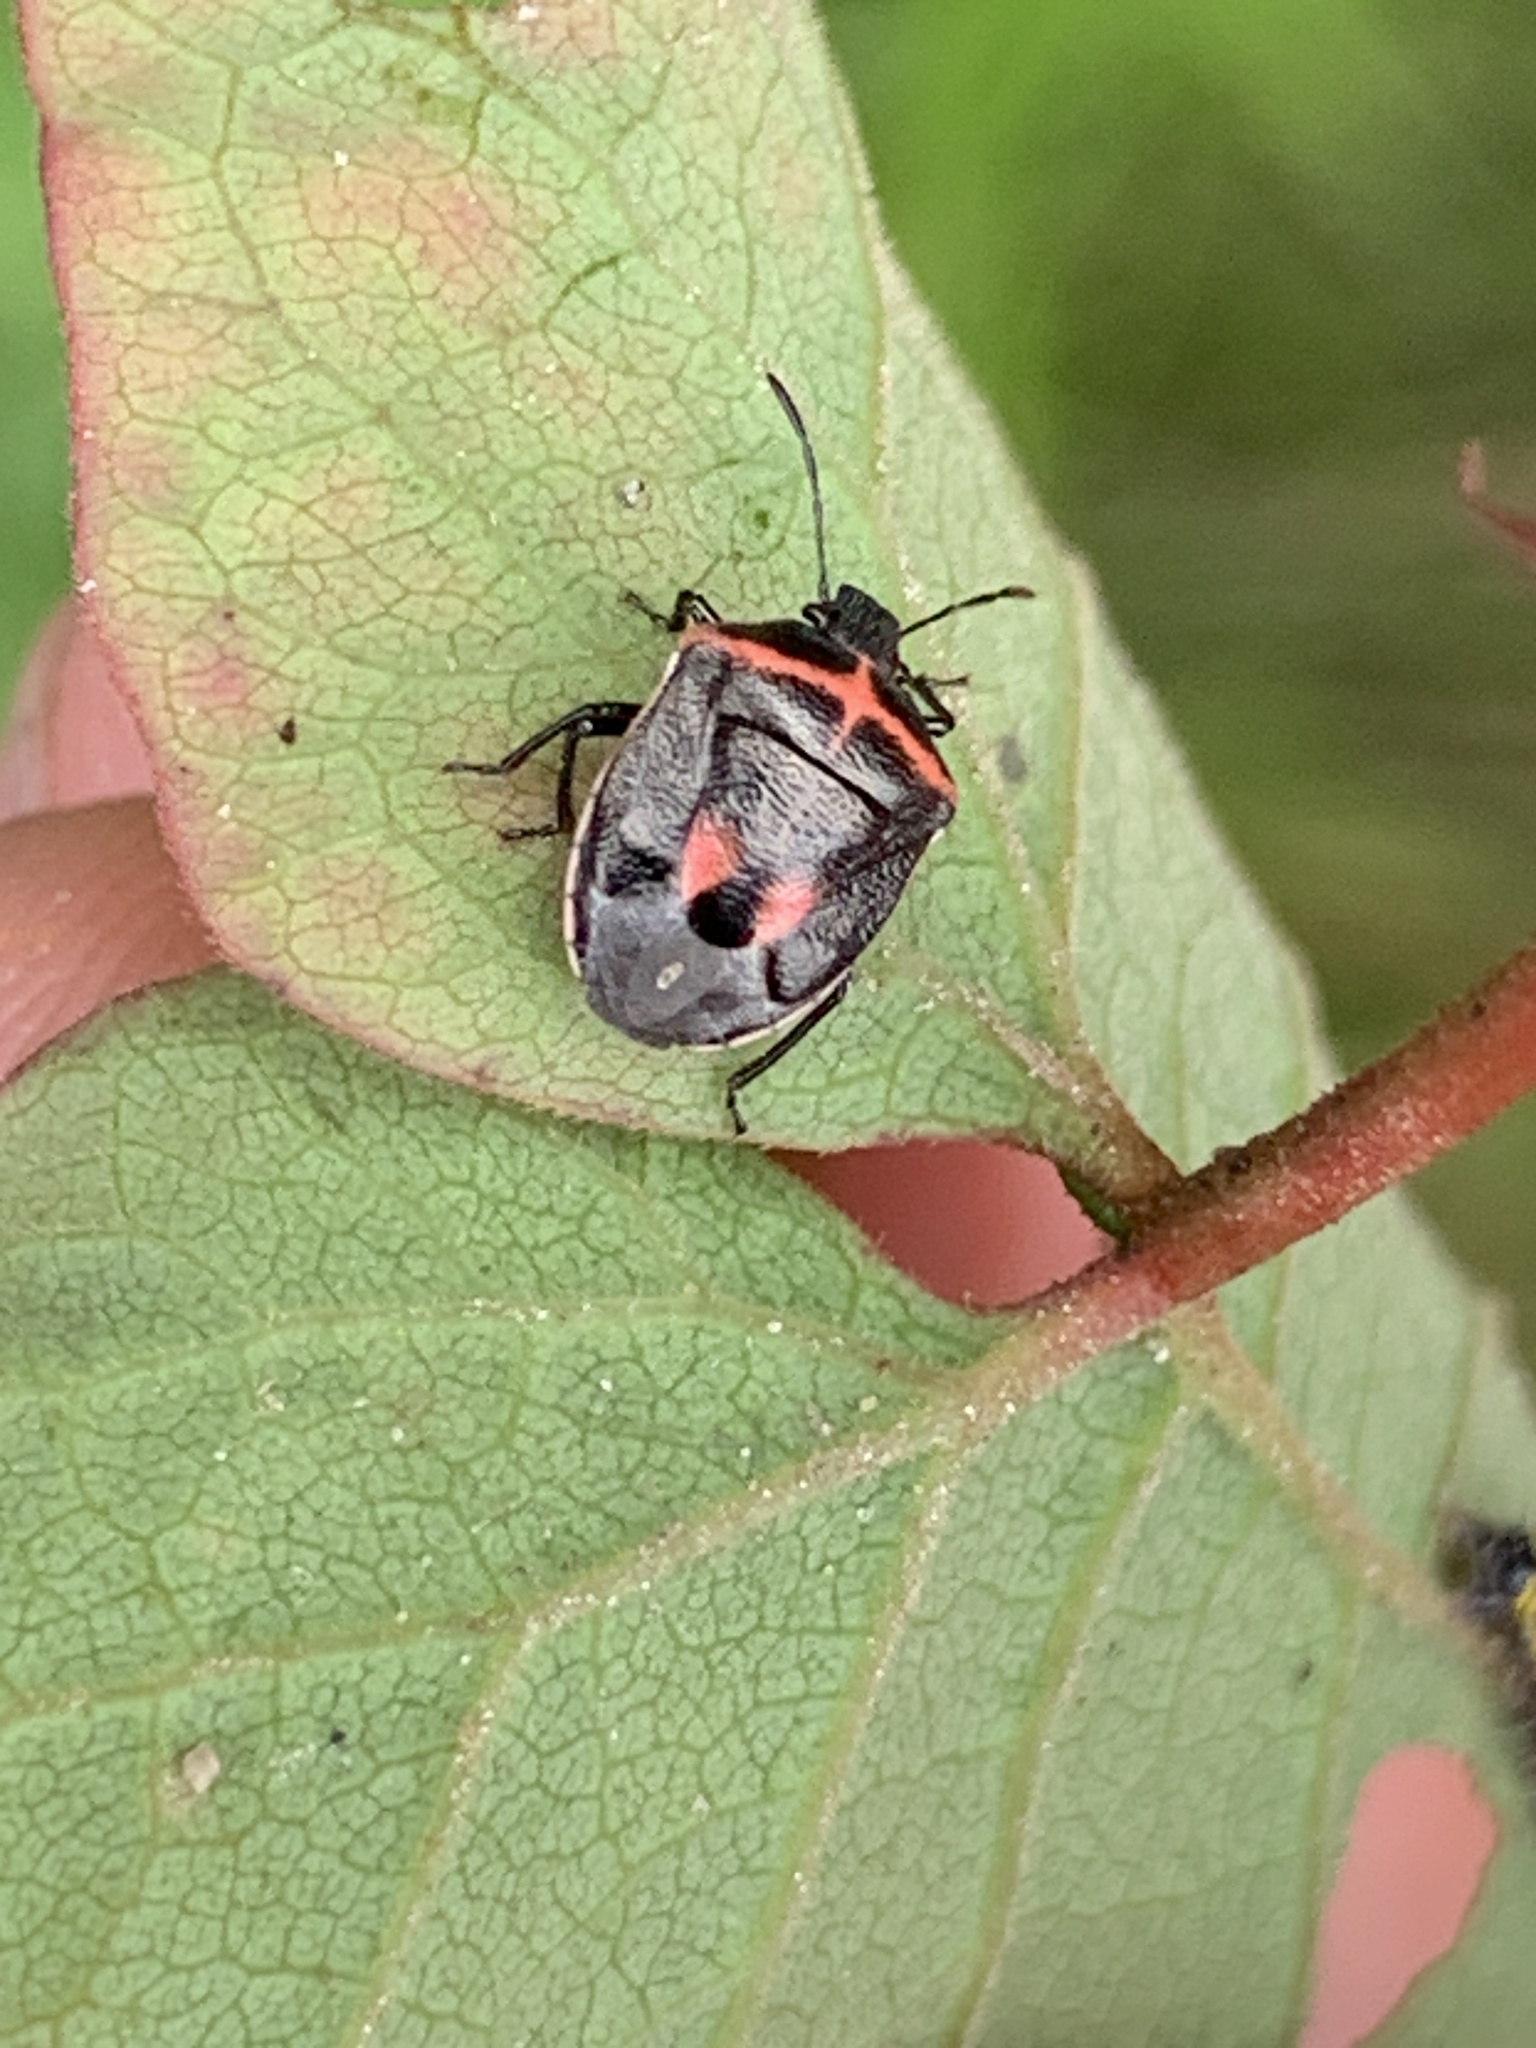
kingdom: Animalia
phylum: Arthropoda
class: Insecta
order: Hemiptera
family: Pentatomidae
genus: Cosmopepla
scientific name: Cosmopepla lintneriana
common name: Twice-stabbed stink bug
